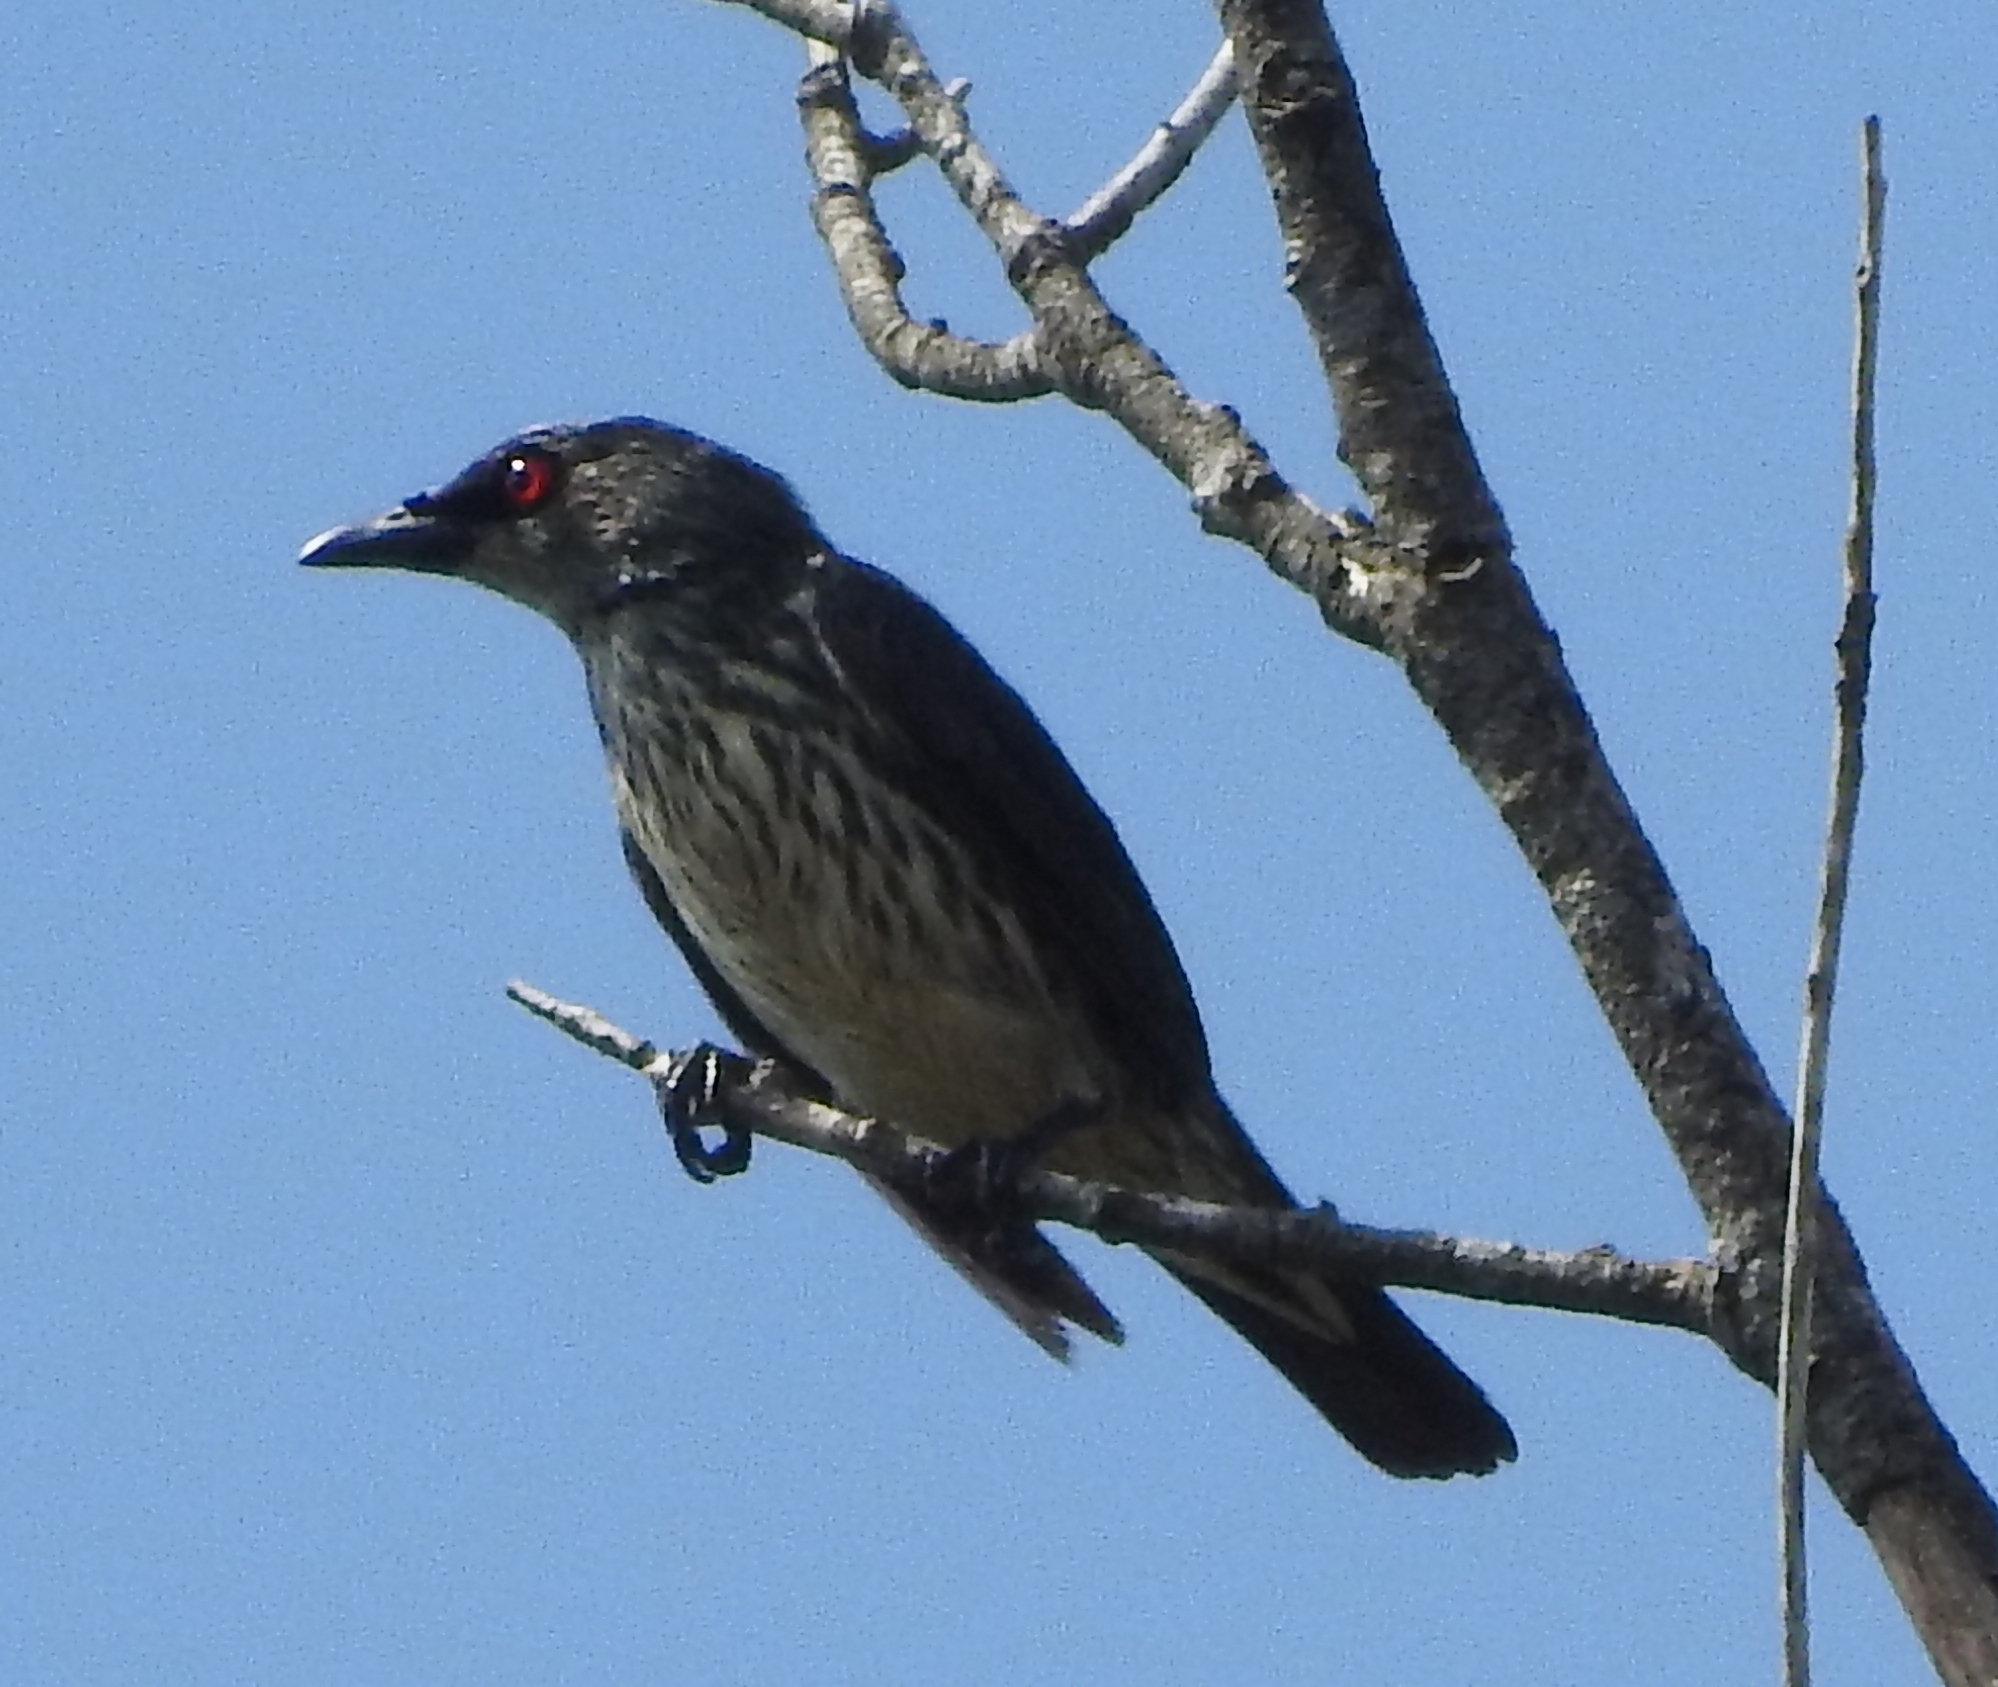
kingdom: Animalia
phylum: Chordata
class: Aves
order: Passeriformes
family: Sturnidae
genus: Aplonis
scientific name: Aplonis panayensis
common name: Asian glossy starling
